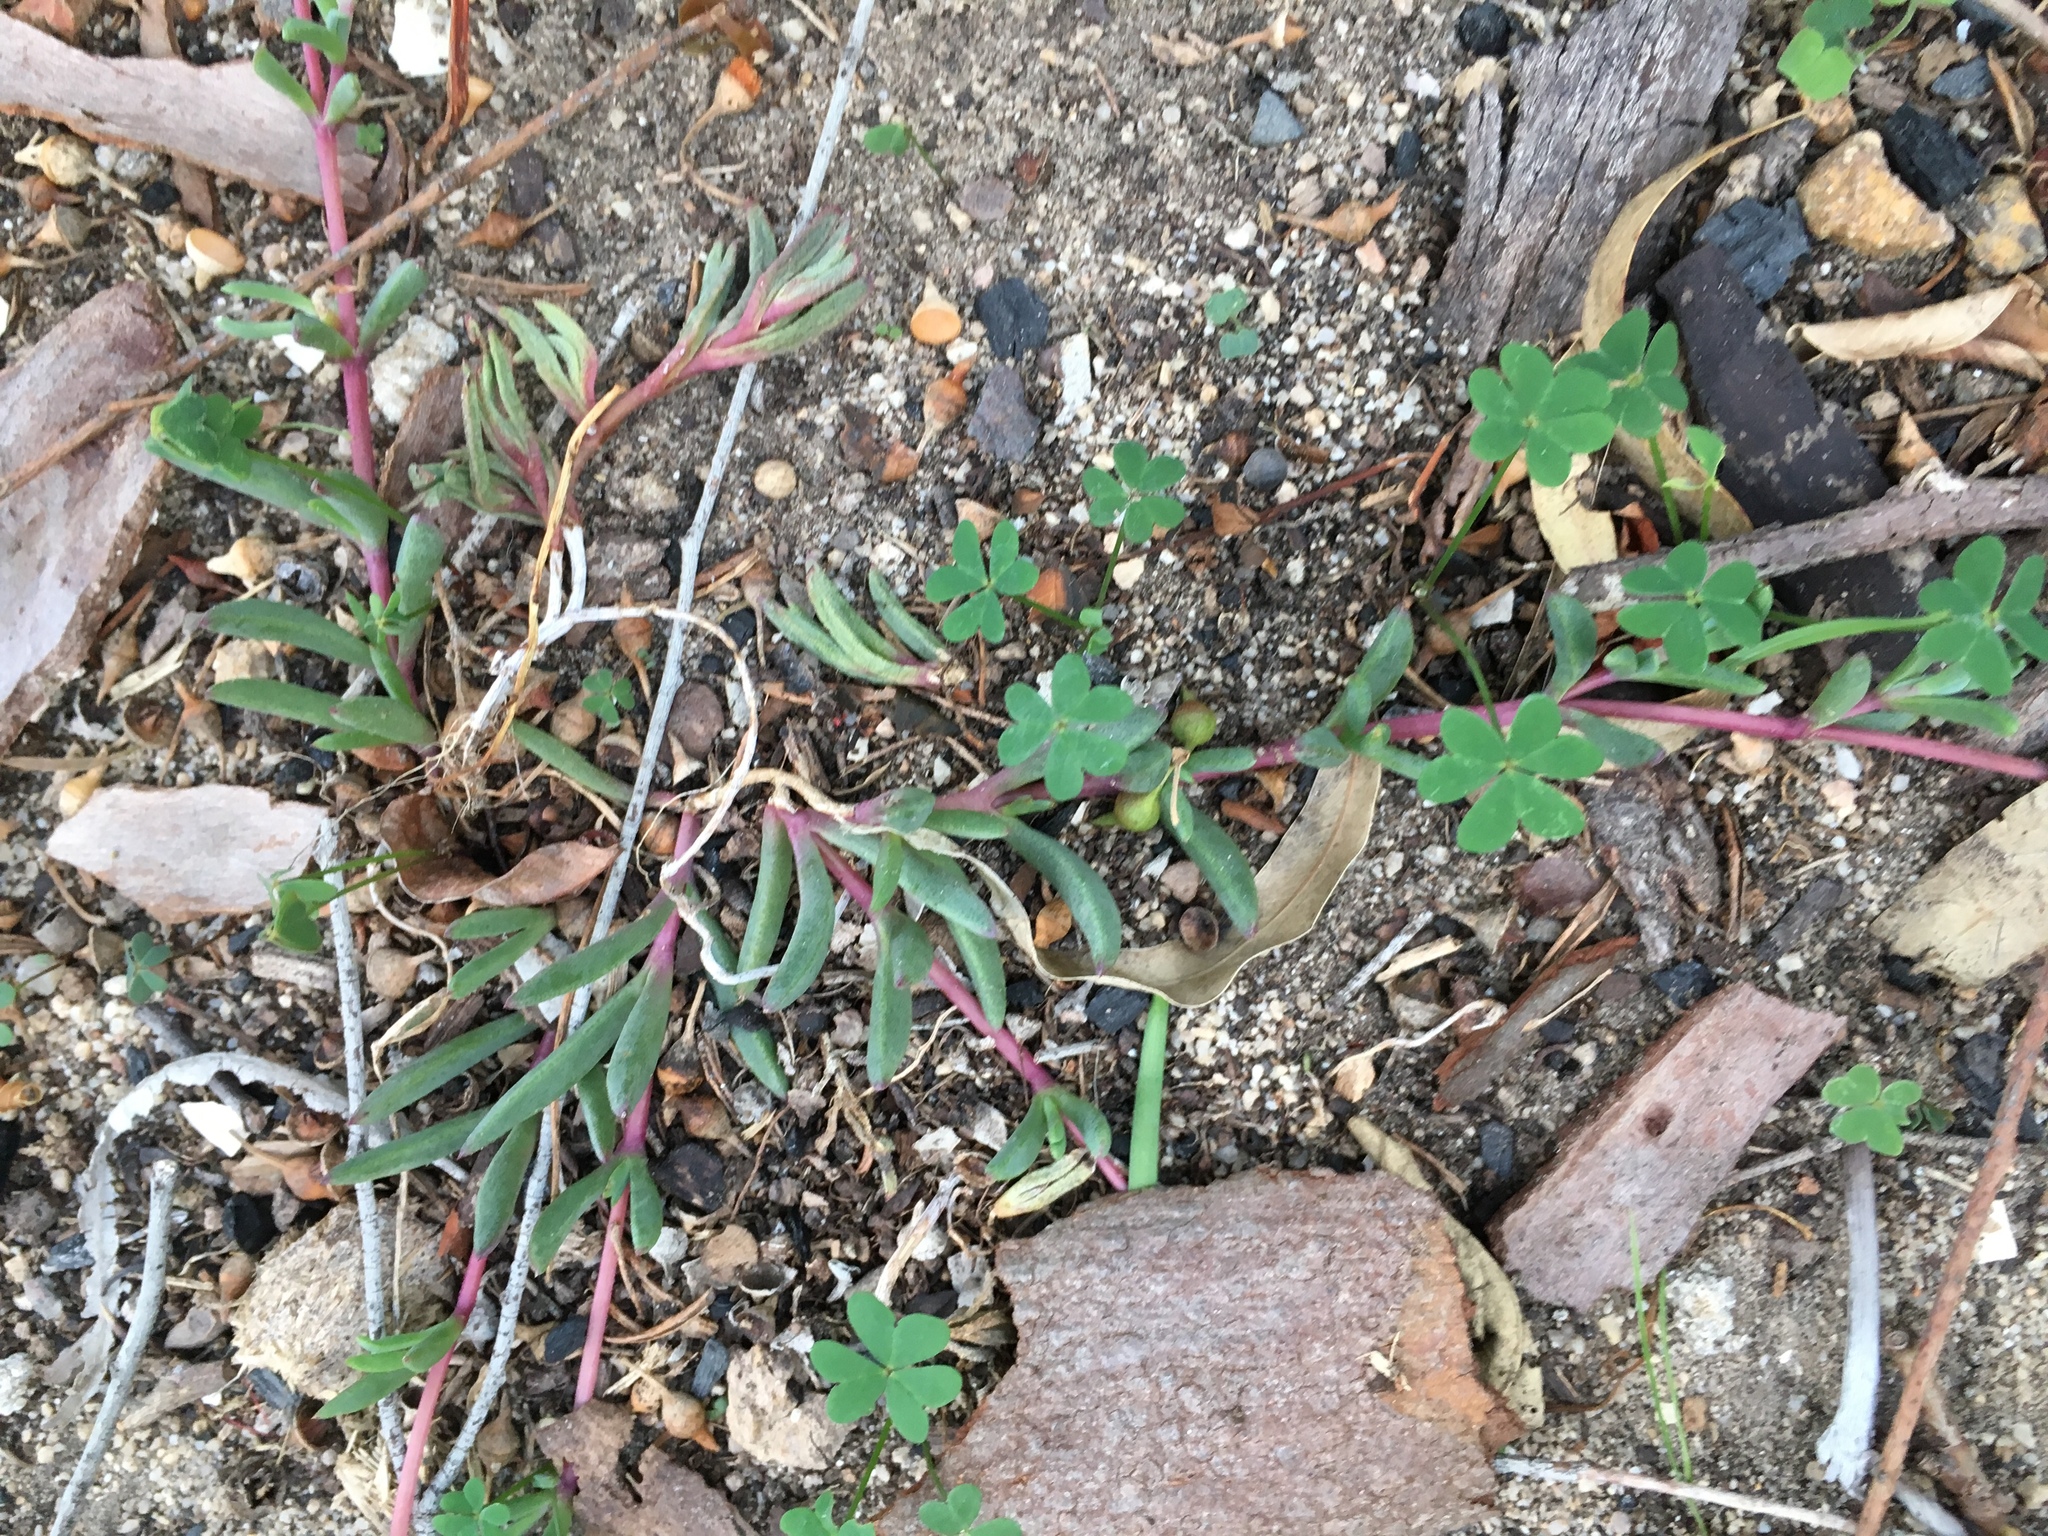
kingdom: Plantae
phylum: Tracheophyta
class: Magnoliopsida
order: Caryophyllales
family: Aizoaceae
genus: Lampranthus
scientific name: Lampranthus reptans
